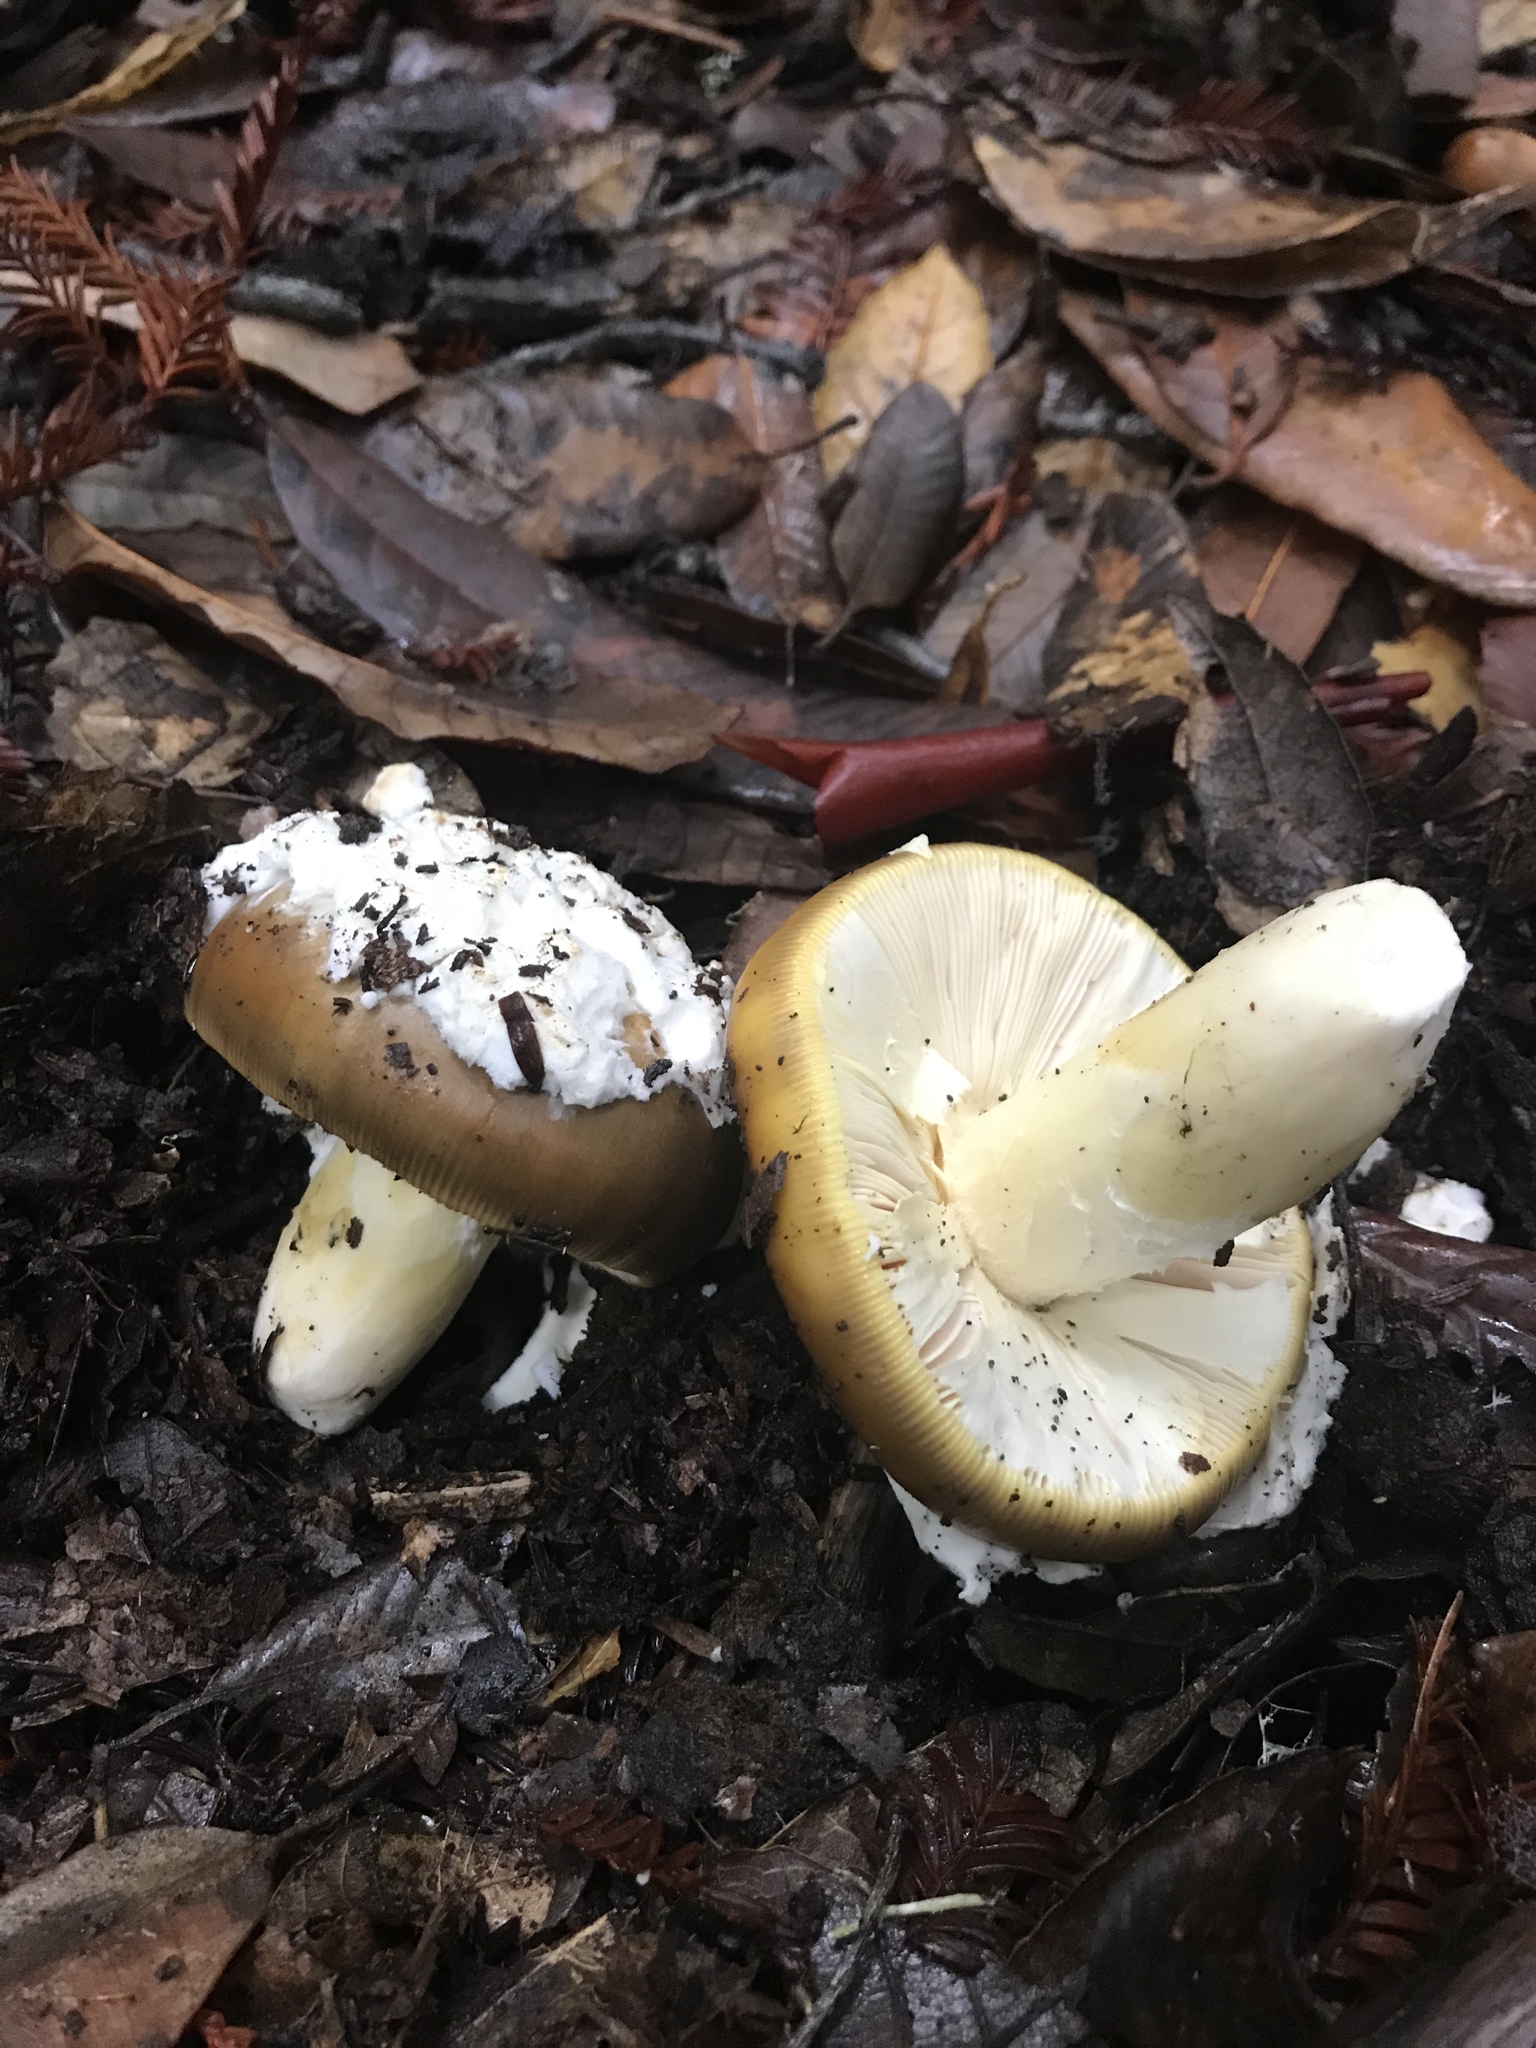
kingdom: Fungi
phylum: Basidiomycota
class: Agaricomycetes
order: Agaricales
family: Amanitaceae
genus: Amanita
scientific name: Amanita calyptroderma
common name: Coccora
